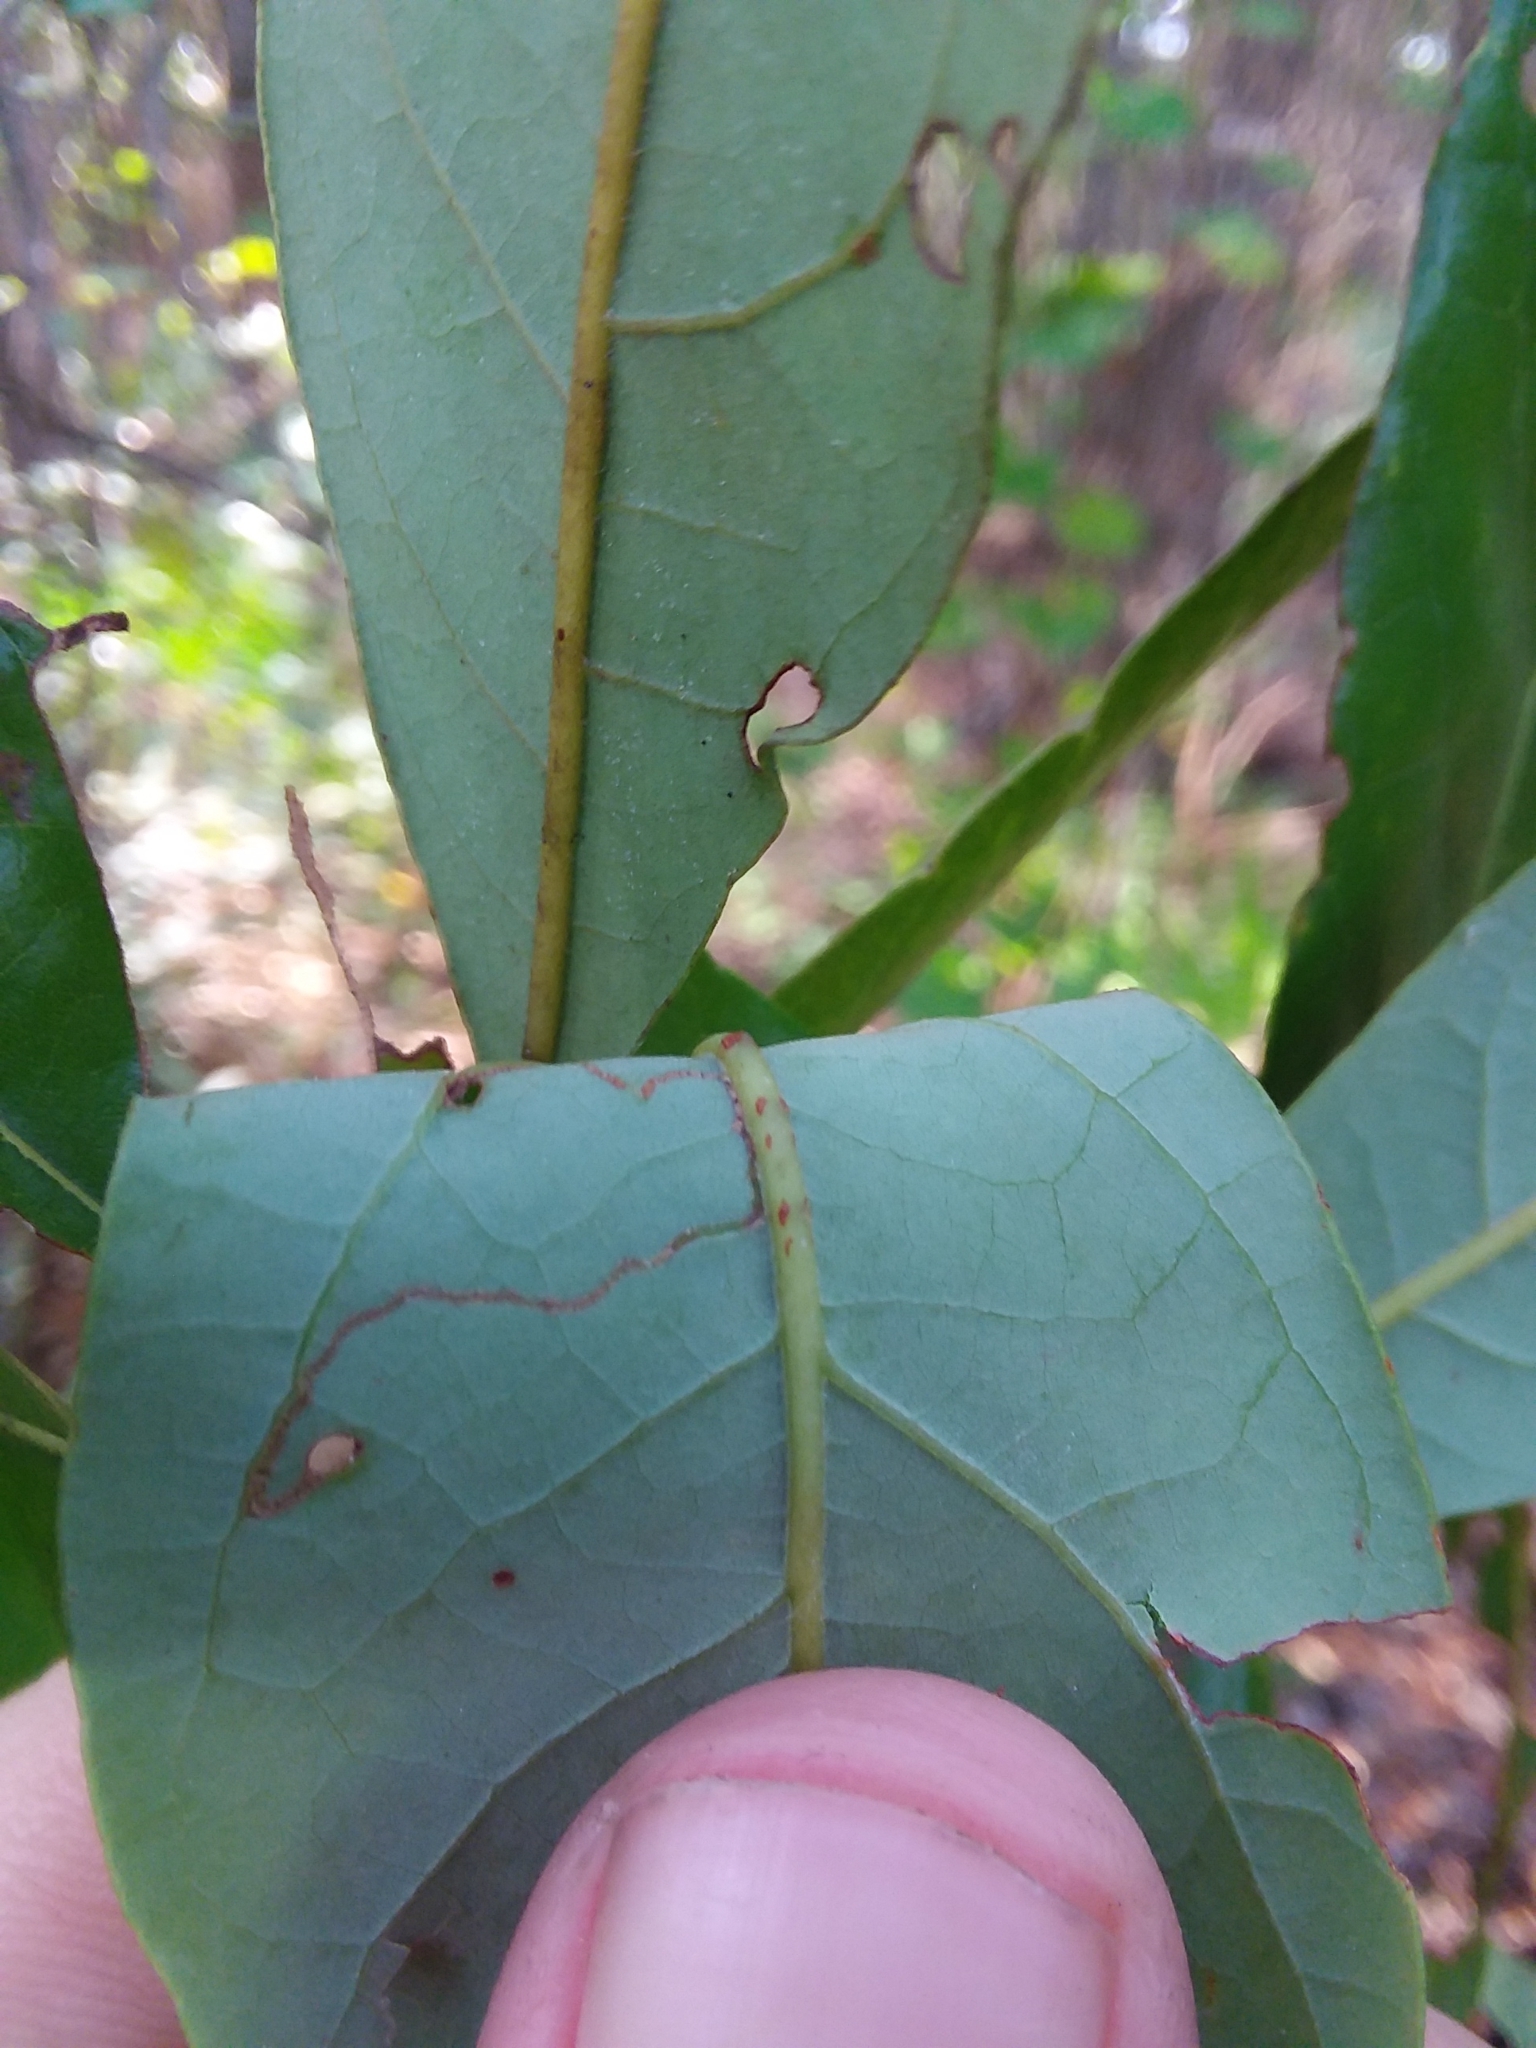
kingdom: Plantae
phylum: Tracheophyta
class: Magnoliopsida
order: Laurales
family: Lauraceae
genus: Persea
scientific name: Persea borbonia
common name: Redbay
